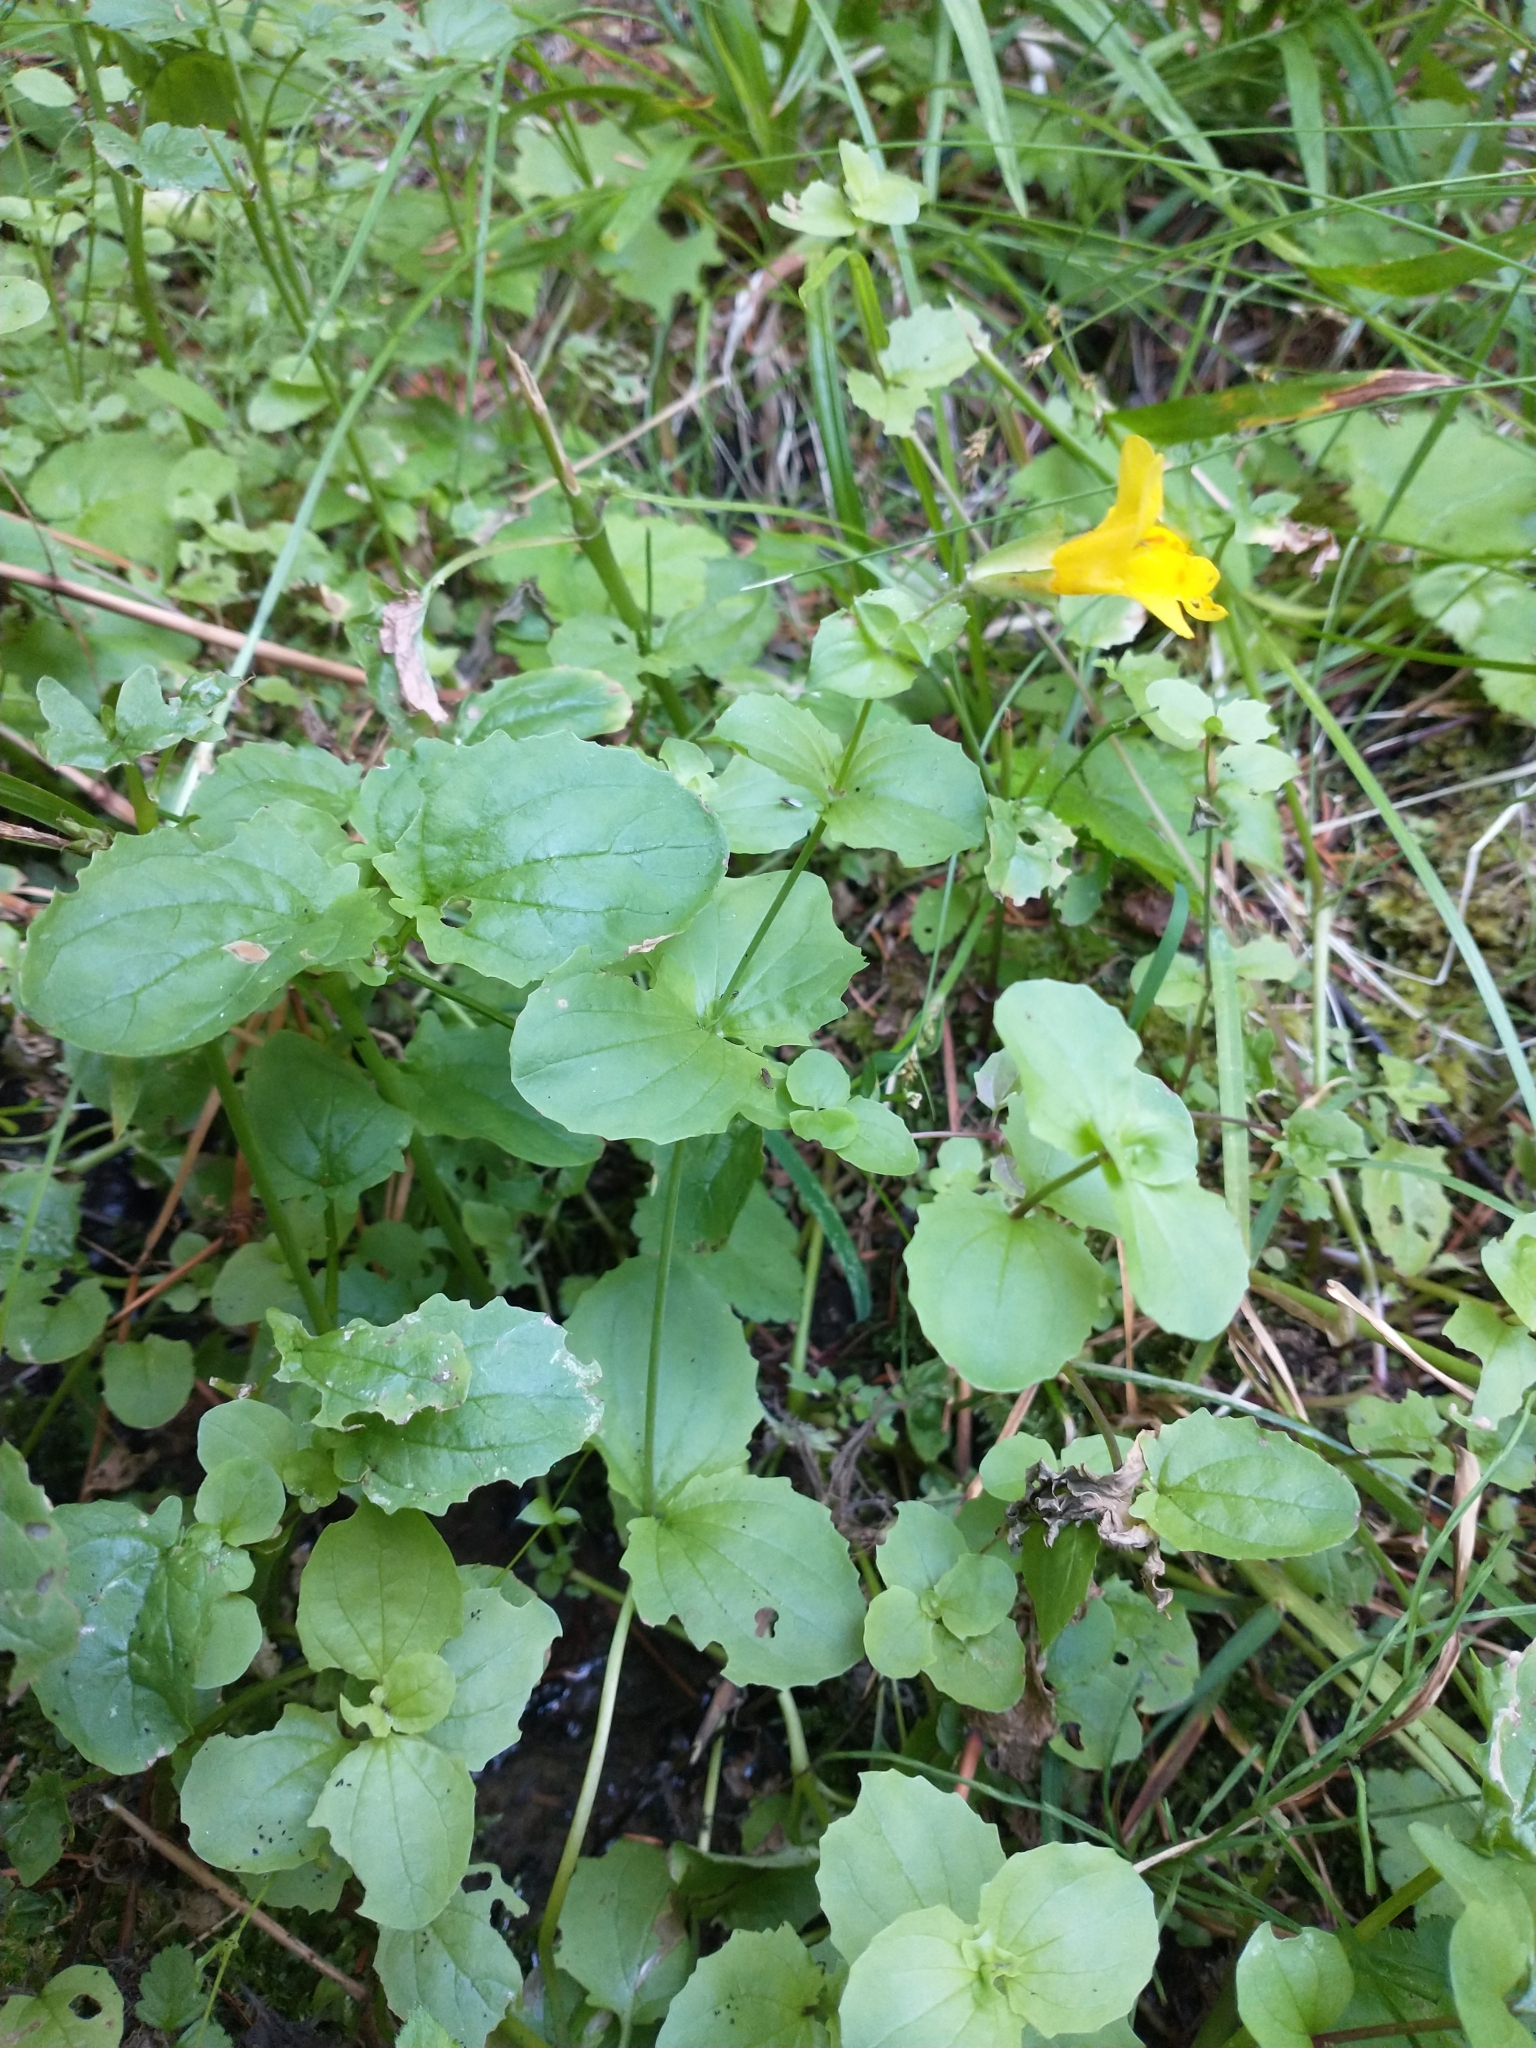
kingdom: Plantae
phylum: Tracheophyta
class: Magnoliopsida
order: Lamiales
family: Phrymaceae
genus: Erythranthe
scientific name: Erythranthe guttata
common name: Monkeyflower
